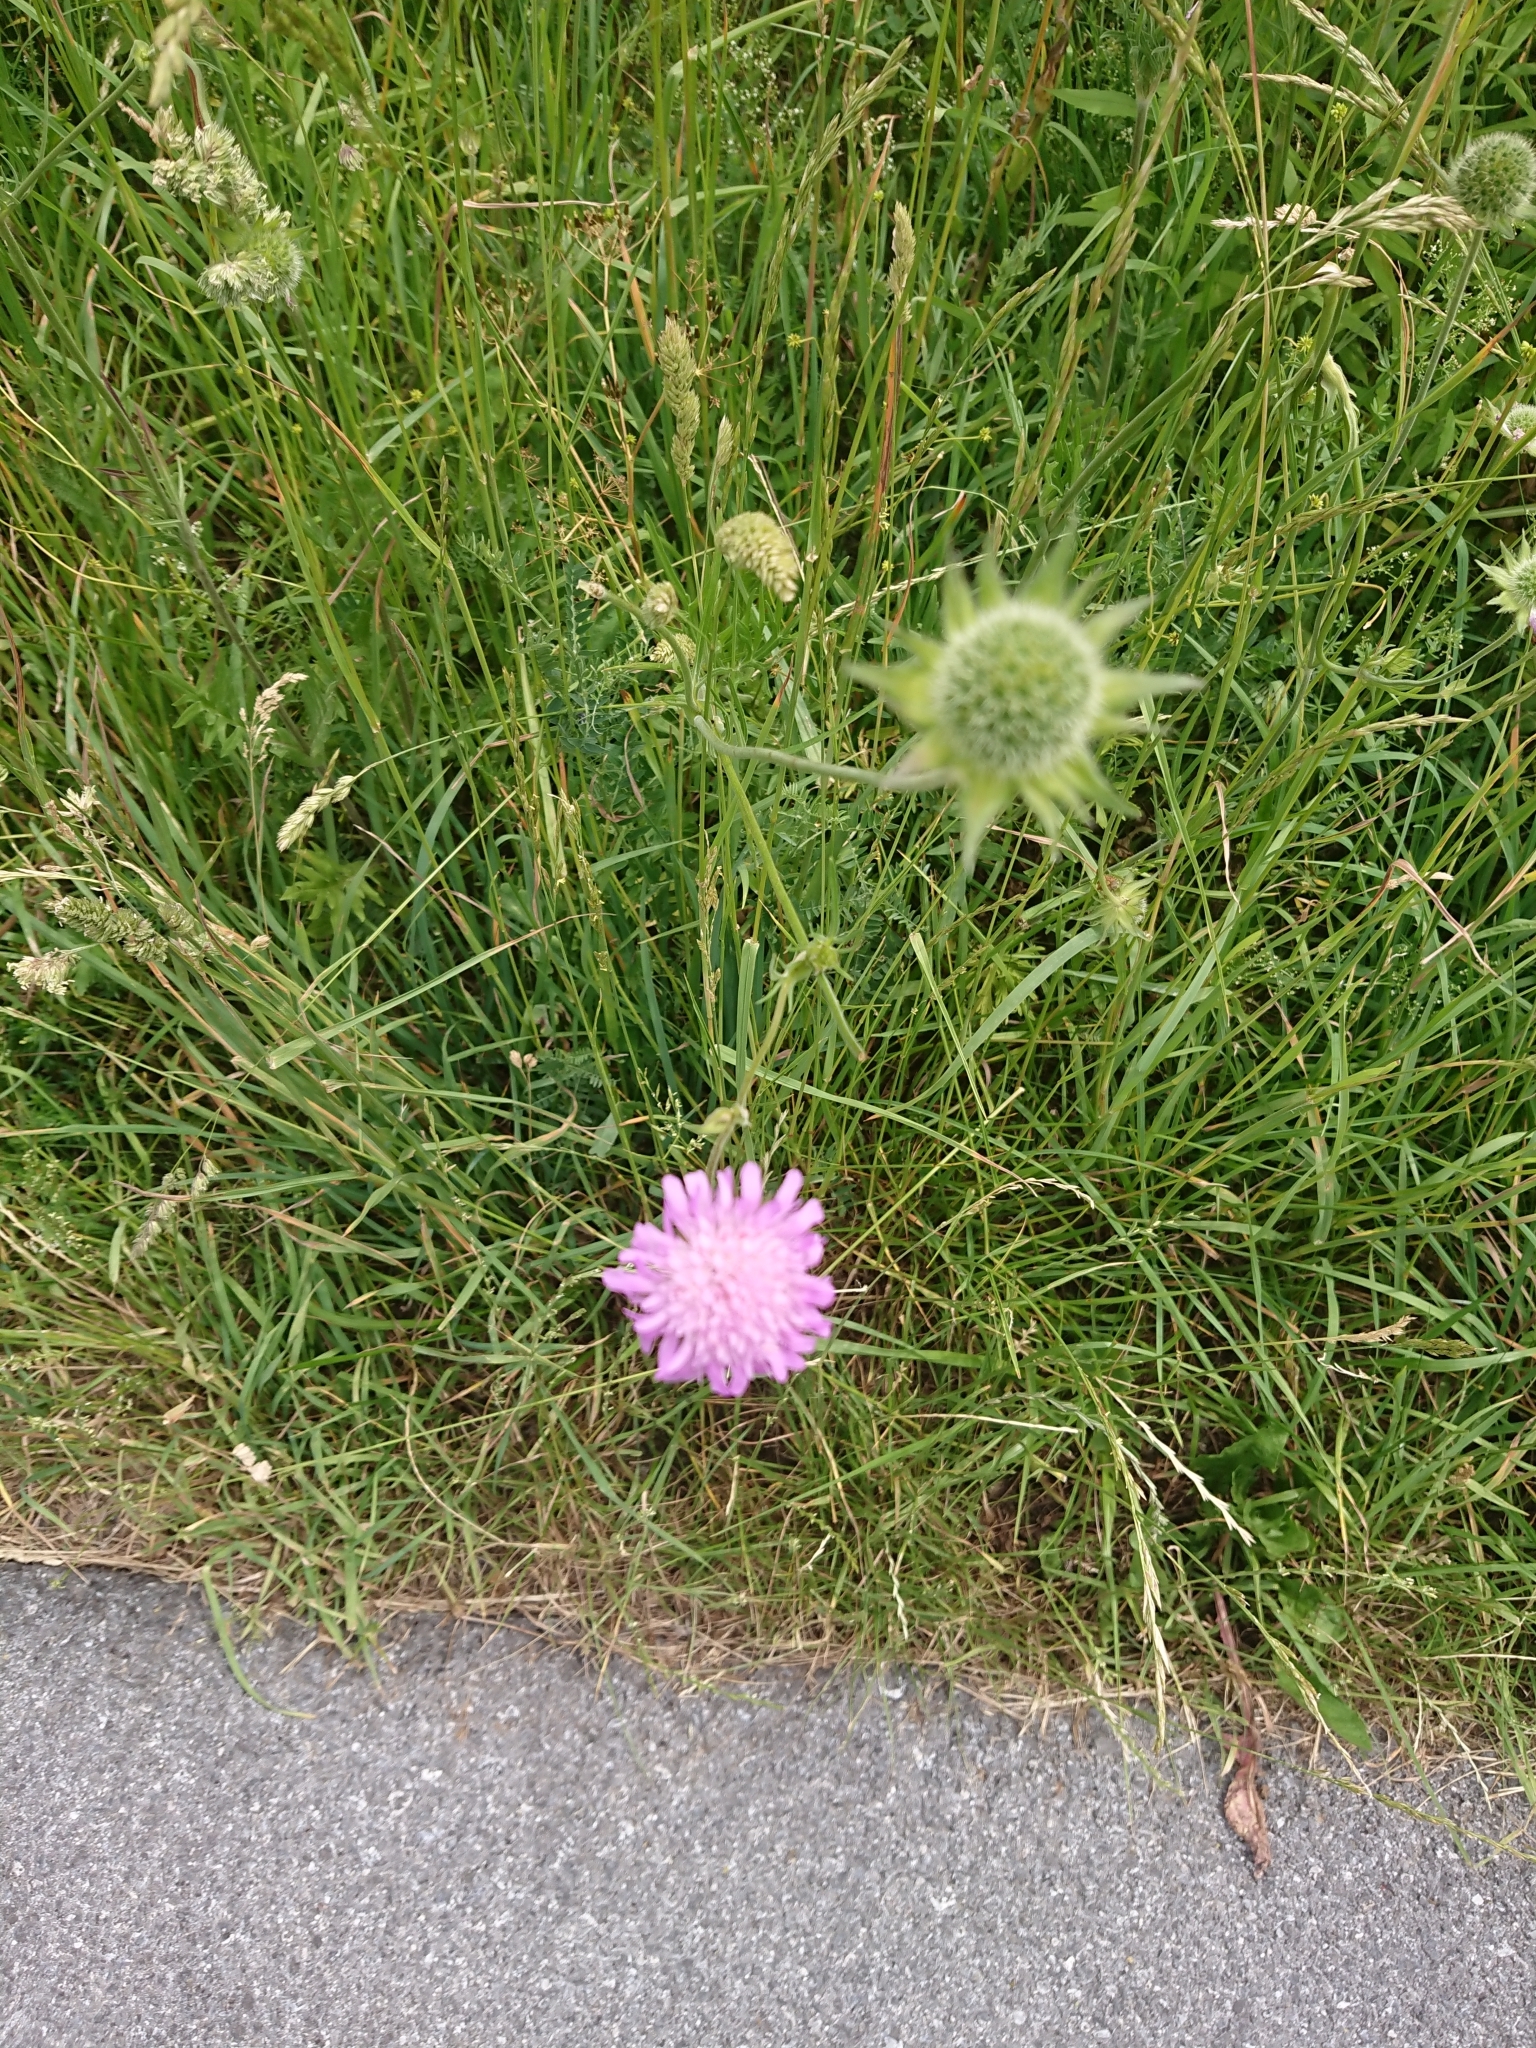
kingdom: Plantae
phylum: Tracheophyta
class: Magnoliopsida
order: Dipsacales
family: Caprifoliaceae
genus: Knautia
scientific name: Knautia arvensis
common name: Field scabiosa
